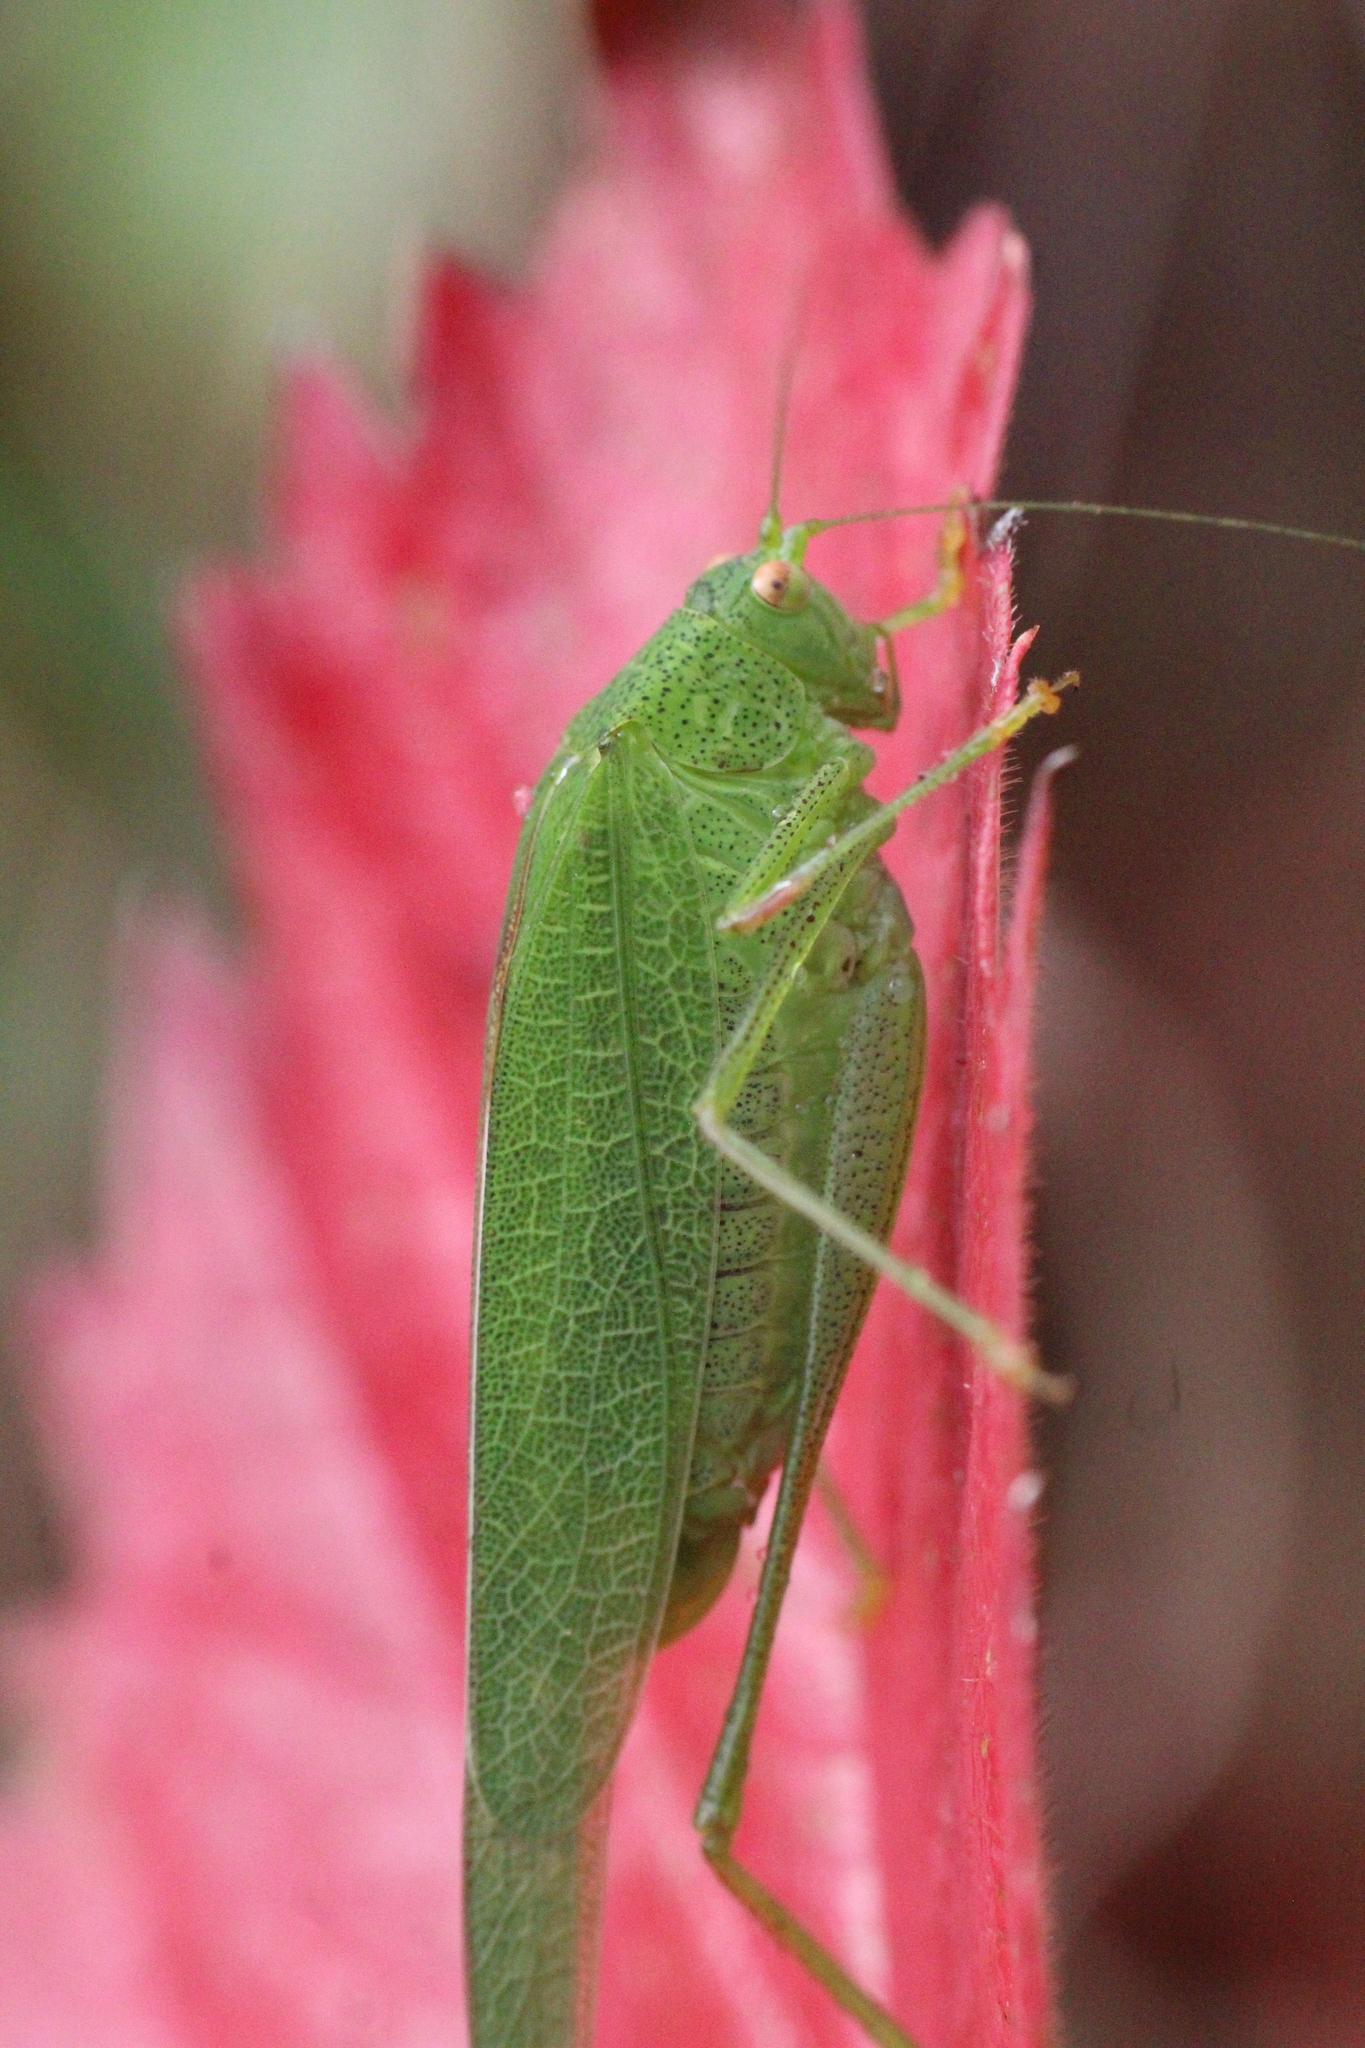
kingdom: Animalia
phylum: Arthropoda
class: Insecta
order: Orthoptera
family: Tettigoniidae
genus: Phaneroptera
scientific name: Phaneroptera nana
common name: Southern sickle bush-cricket
